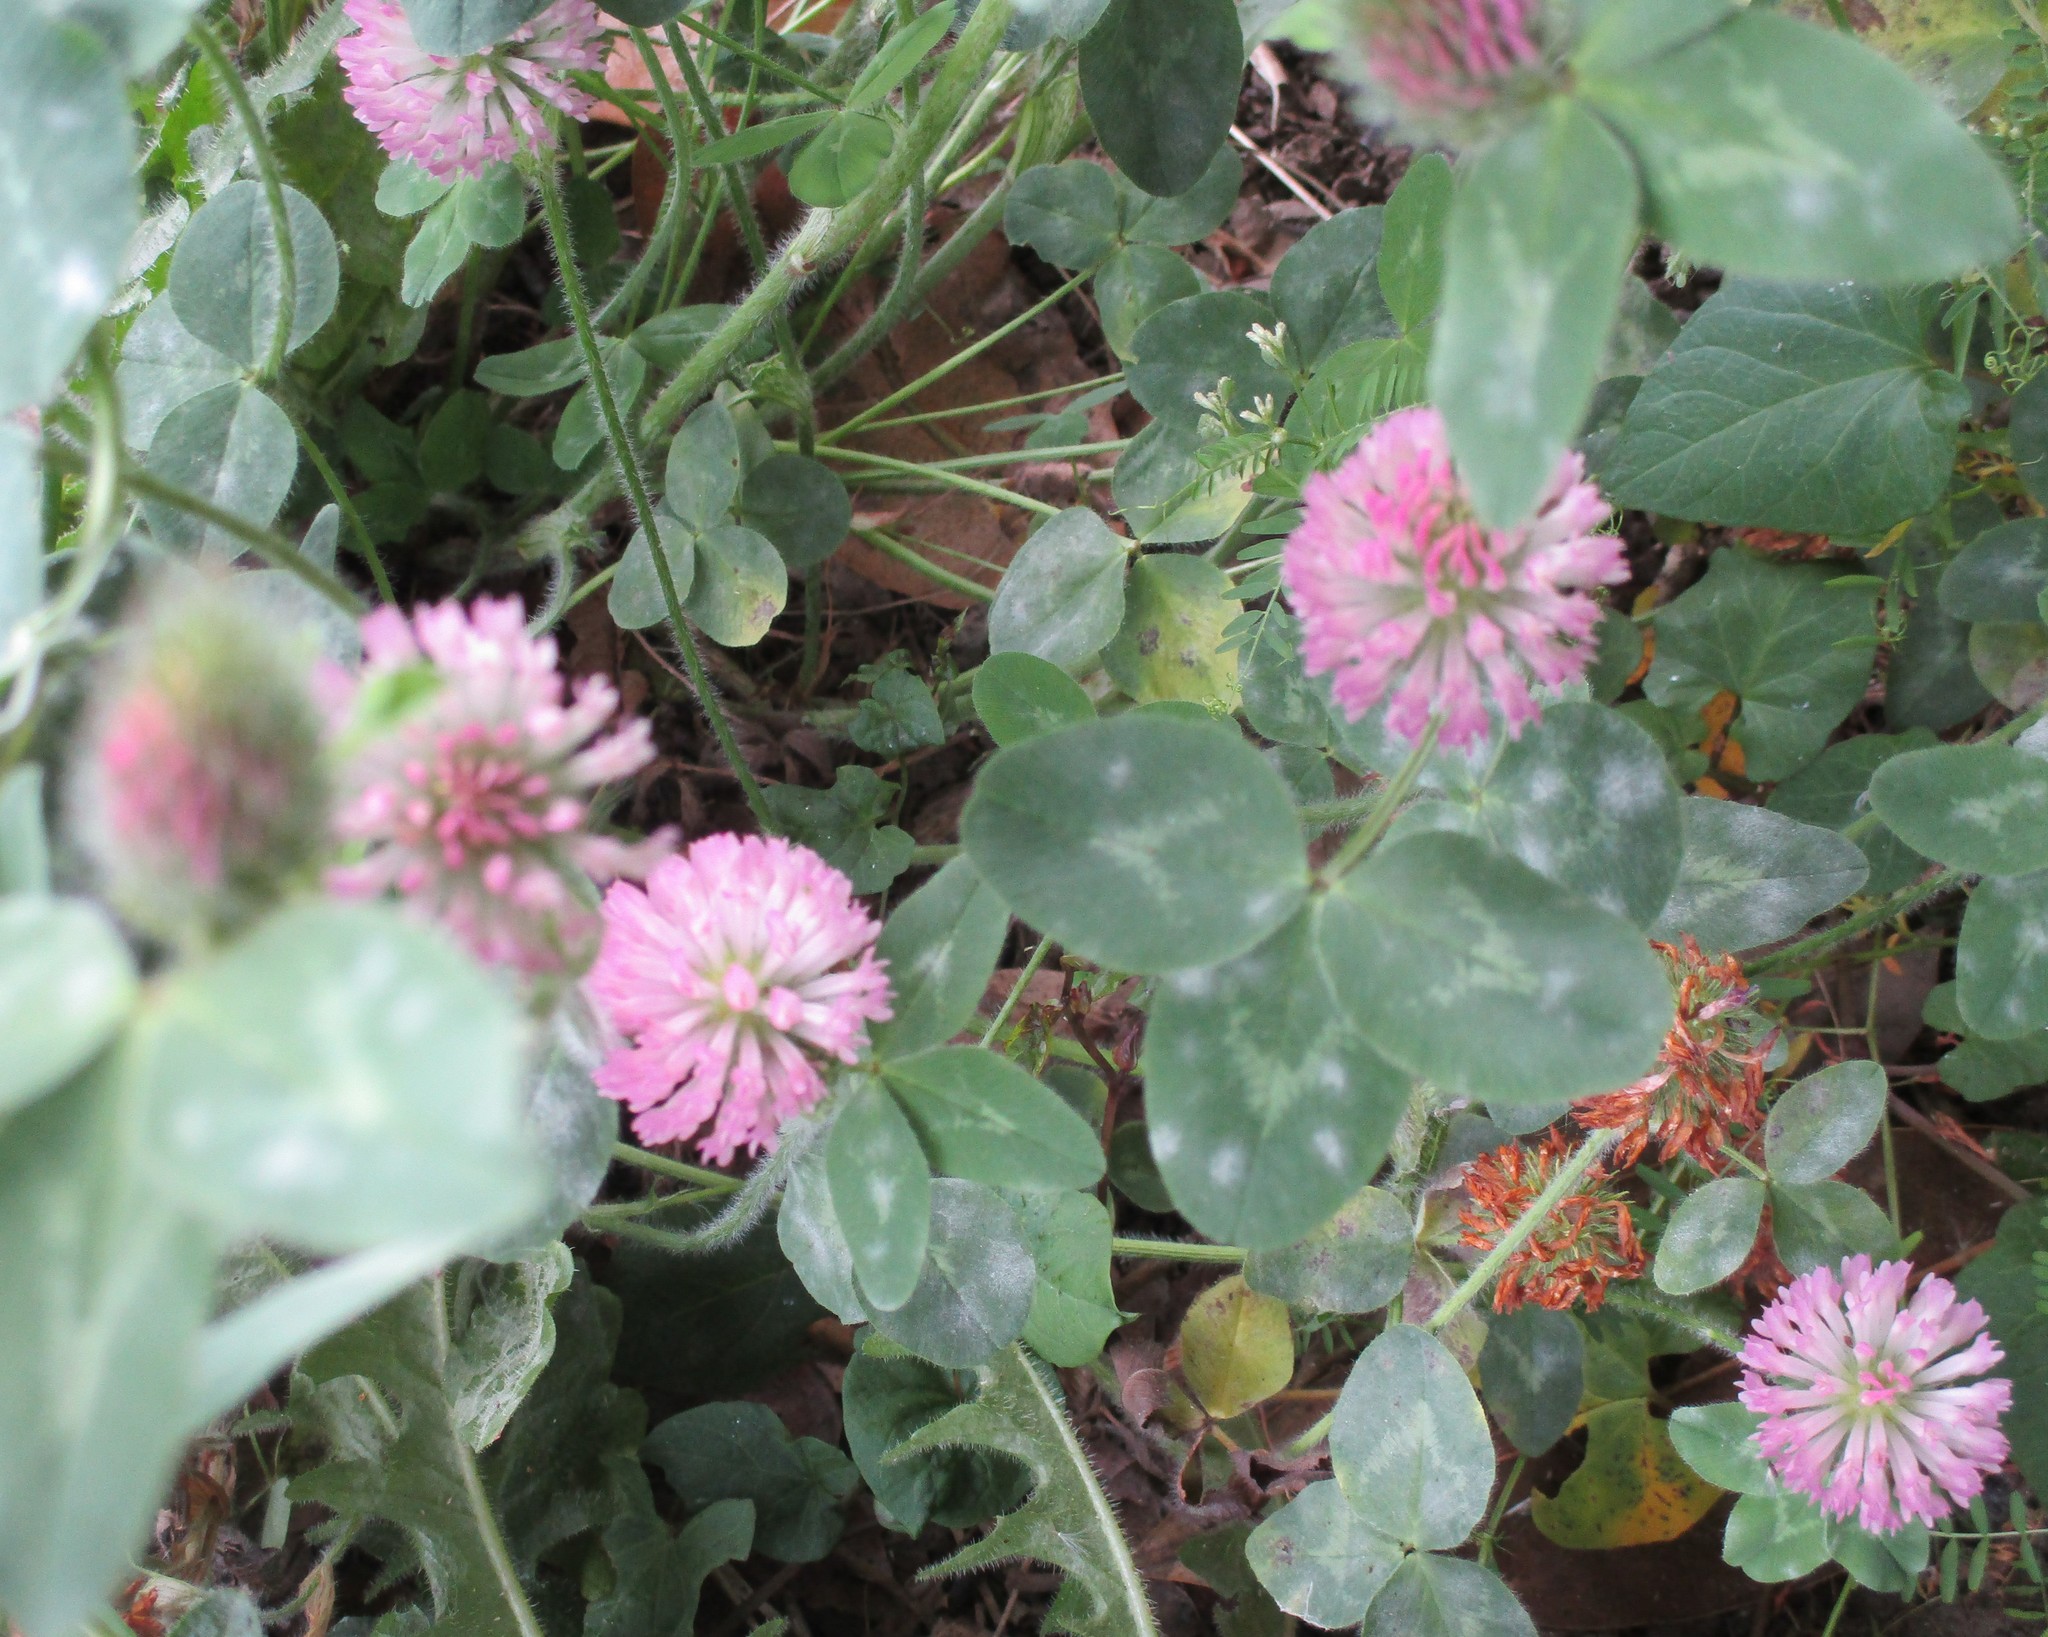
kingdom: Plantae
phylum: Tracheophyta
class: Magnoliopsida
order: Fabales
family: Fabaceae
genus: Trifolium
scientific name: Trifolium pratense
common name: Red clover
